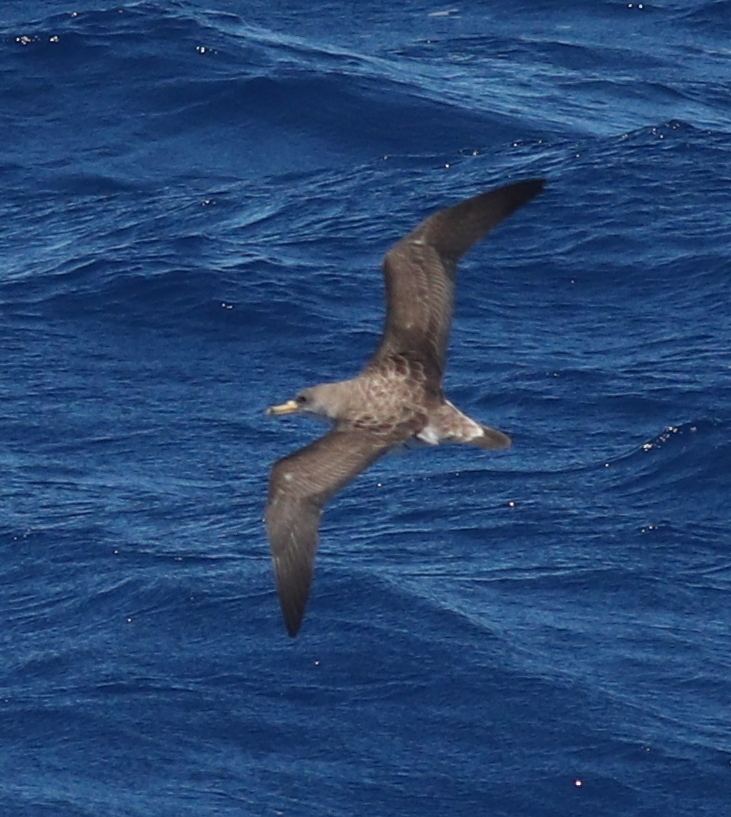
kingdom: Animalia
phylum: Chordata
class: Aves
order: Procellariiformes
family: Procellariidae
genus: Calonectris
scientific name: Calonectris diomedea
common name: Cory's shearwater
